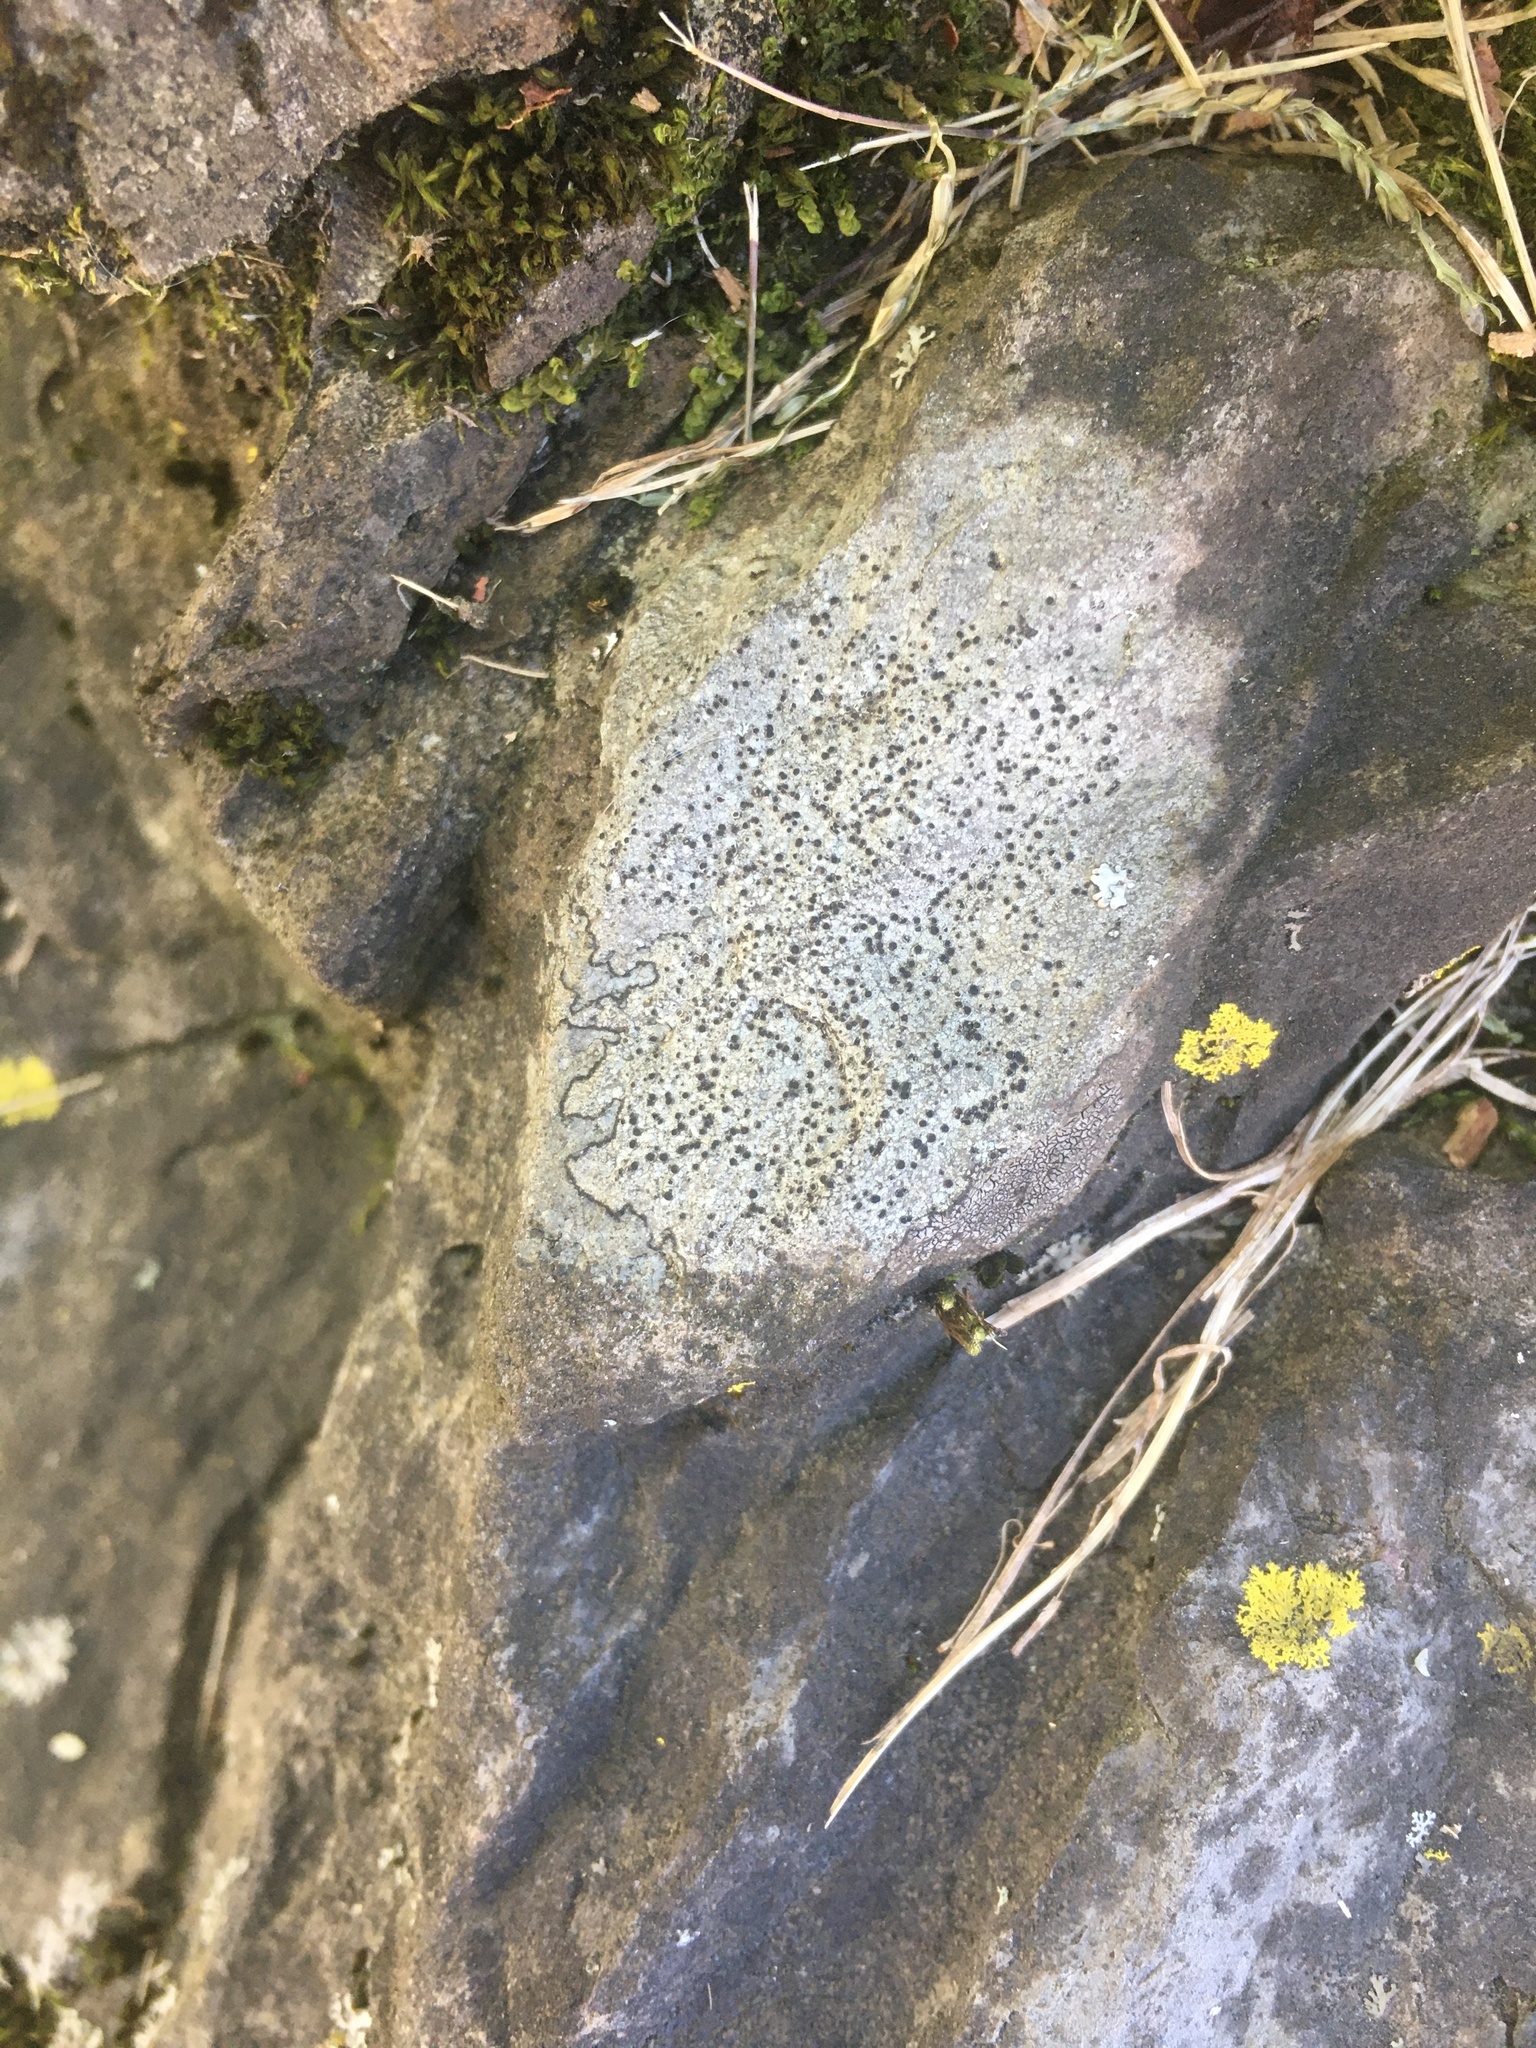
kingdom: Fungi
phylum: Ascomycota
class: Lecanoromycetes
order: Lecideales
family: Lecideaceae
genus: Porpidia
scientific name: Porpidia albocaerulescens
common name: Smokey-eyed boulder lichen
